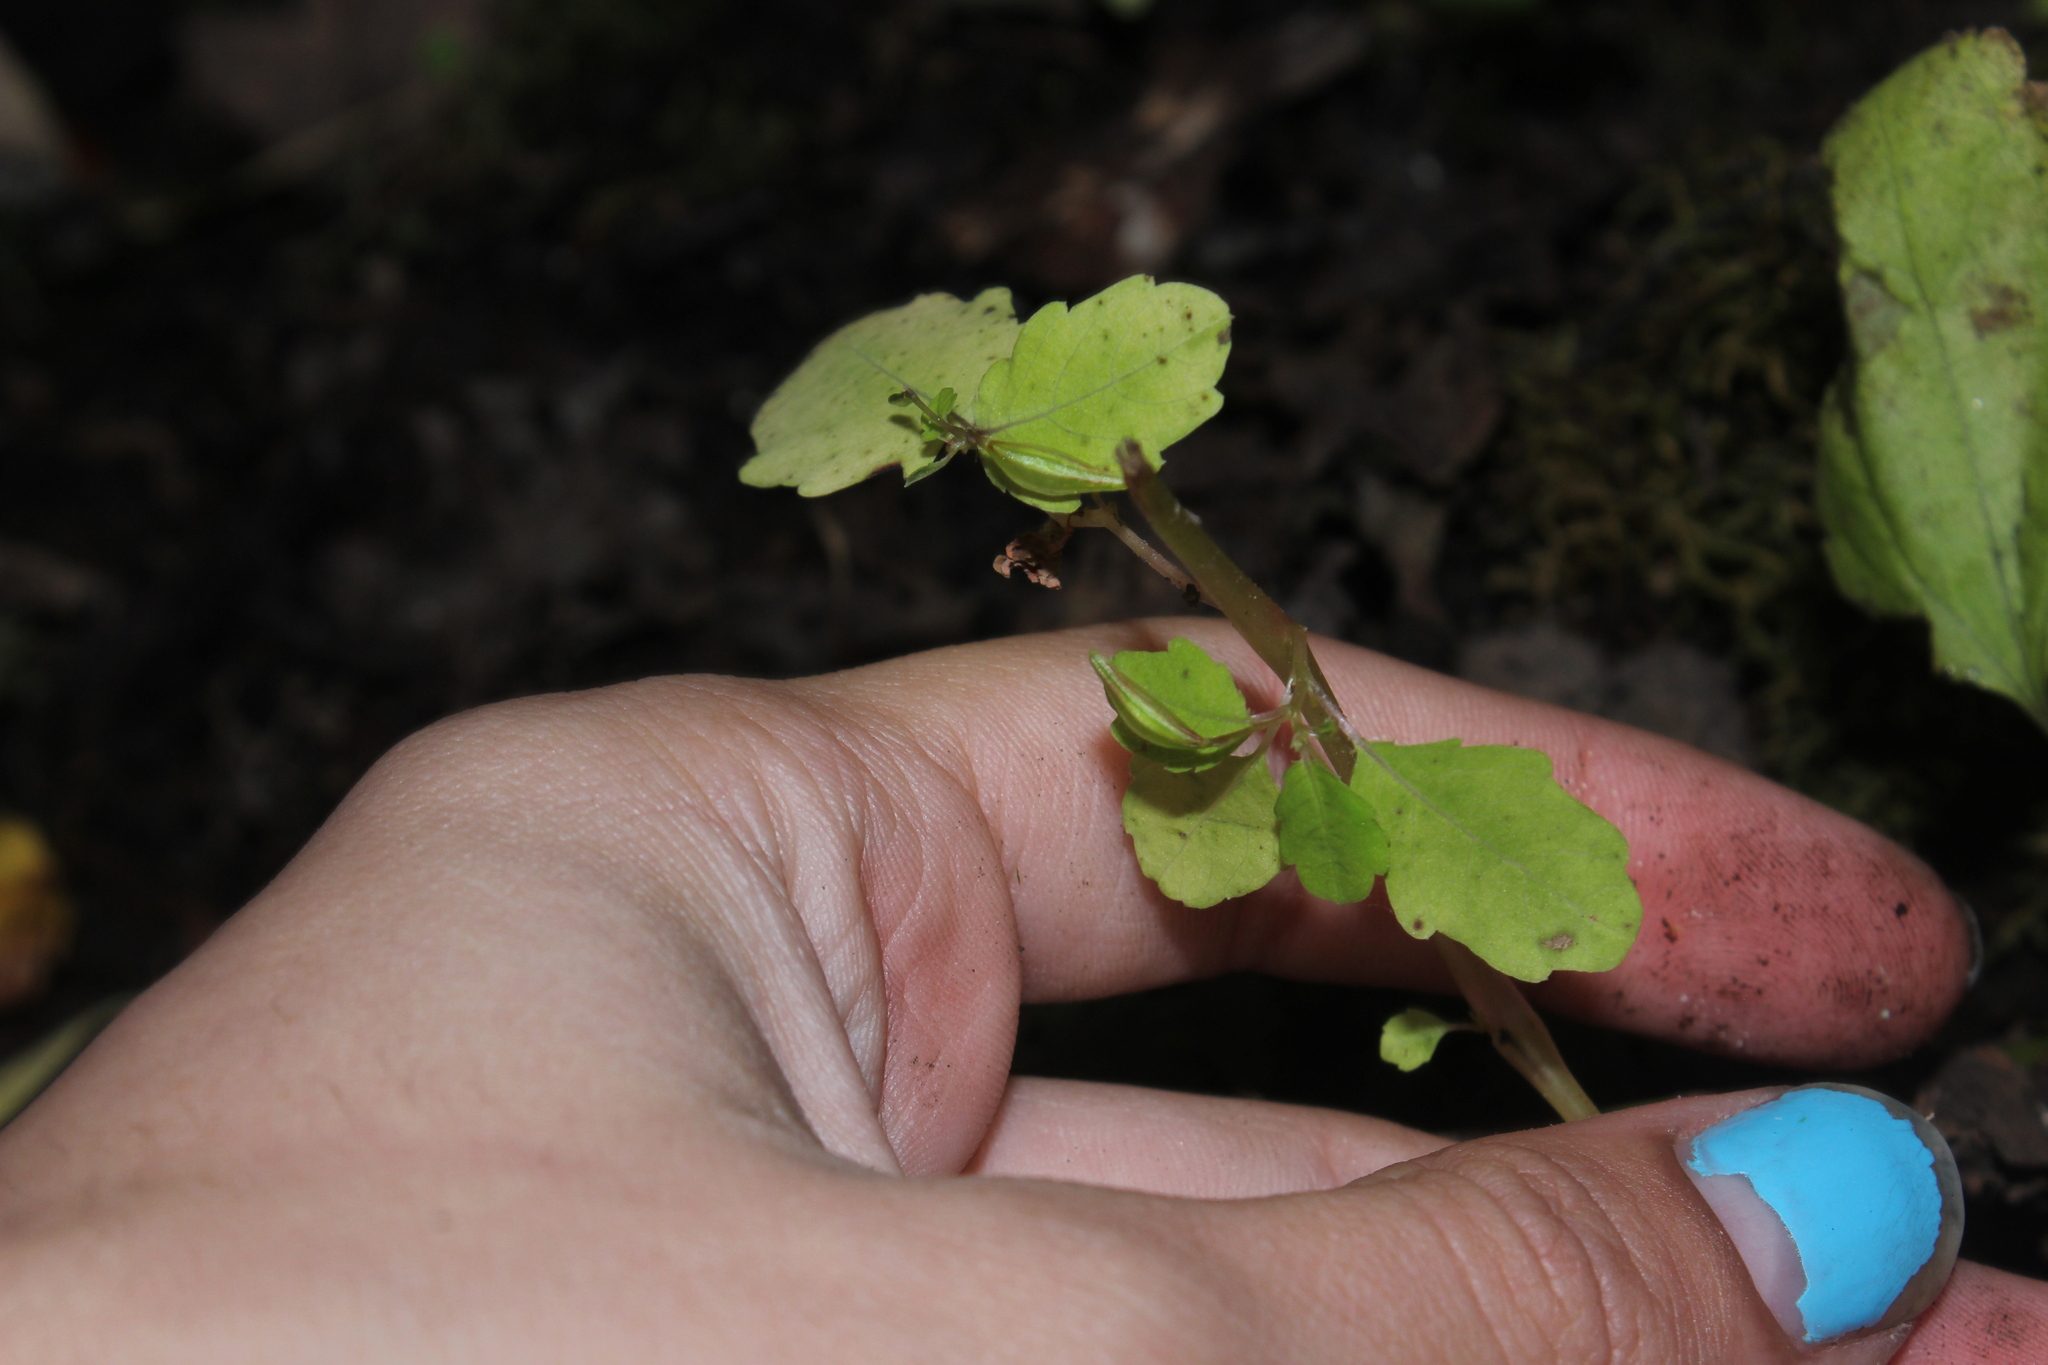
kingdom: Plantae
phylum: Tracheophyta
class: Magnoliopsida
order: Ericales
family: Balsaminaceae
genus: Impatiens
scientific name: Impatiens
